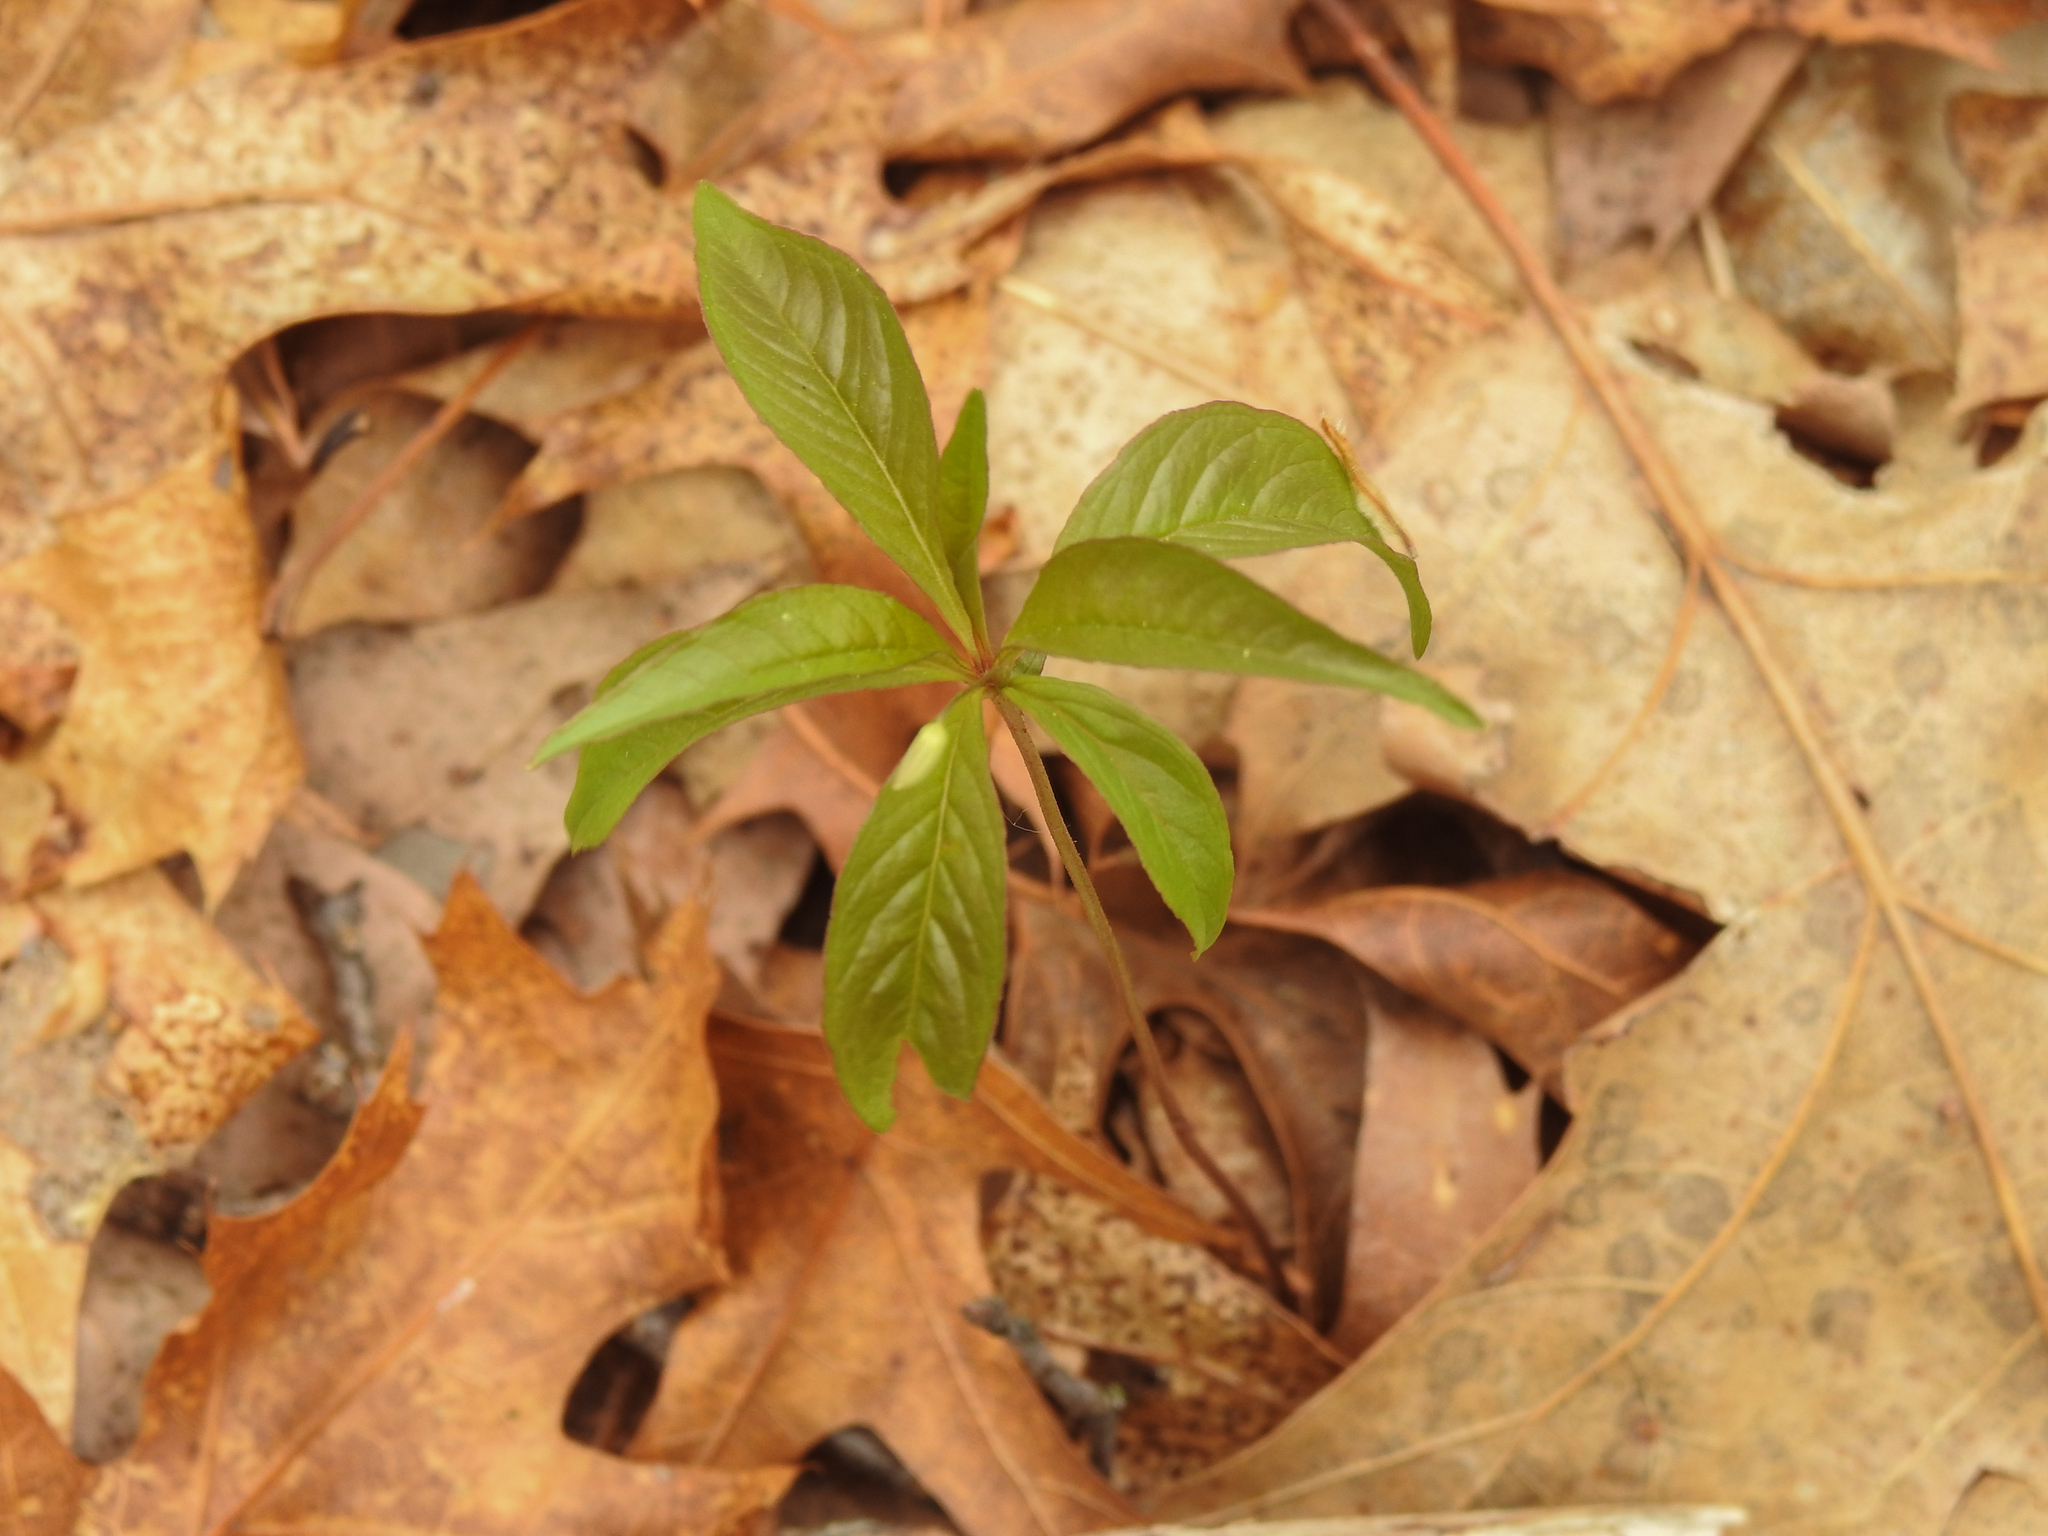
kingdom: Plantae
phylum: Tracheophyta
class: Magnoliopsida
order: Ericales
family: Primulaceae
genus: Lysimachia
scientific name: Lysimachia borealis
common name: American starflower
